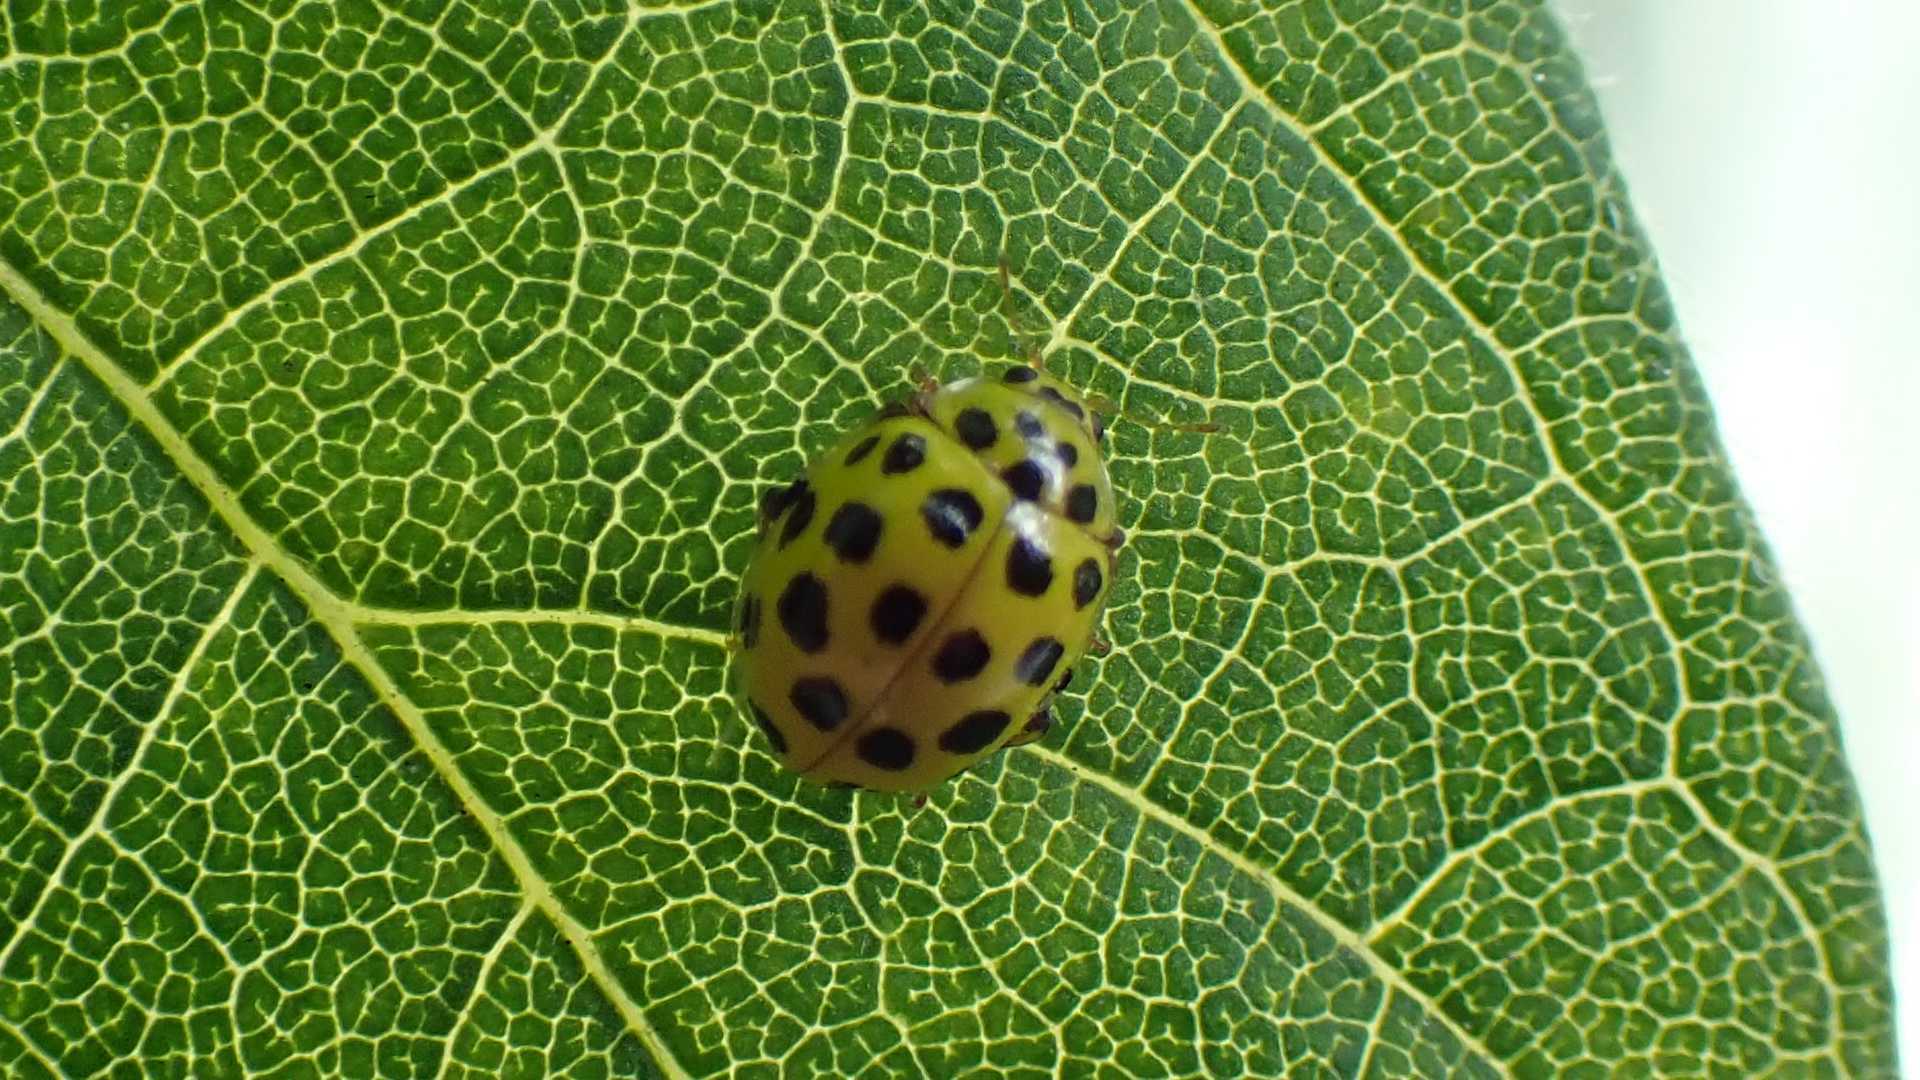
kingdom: Animalia
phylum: Arthropoda
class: Insecta
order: Coleoptera
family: Coccinellidae
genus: Psyllobora
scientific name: Psyllobora vigintiduopunctata
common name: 22-spot ladybird
